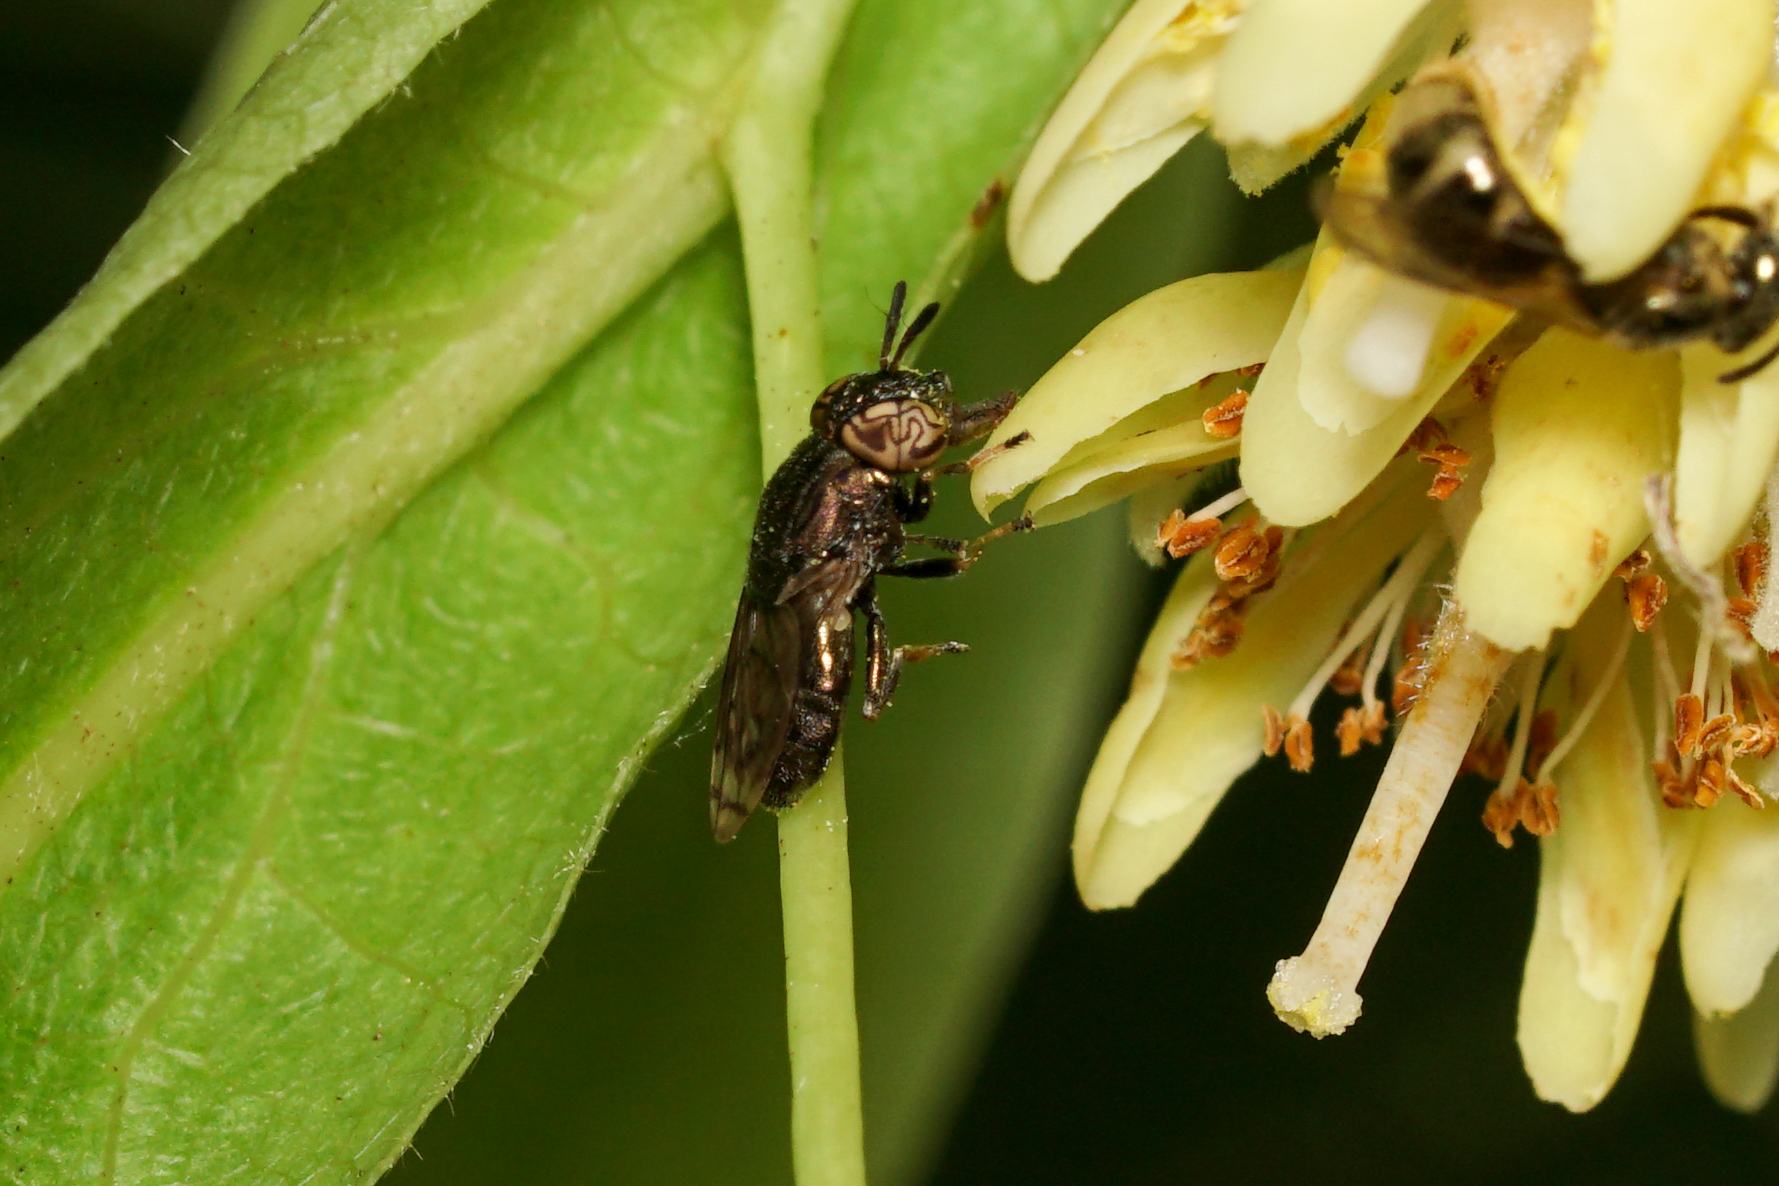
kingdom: Animalia
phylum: Arthropoda
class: Insecta
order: Diptera
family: Syrphidae
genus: Orthonevra
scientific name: Orthonevra nitida
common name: Wavy mucksucker
